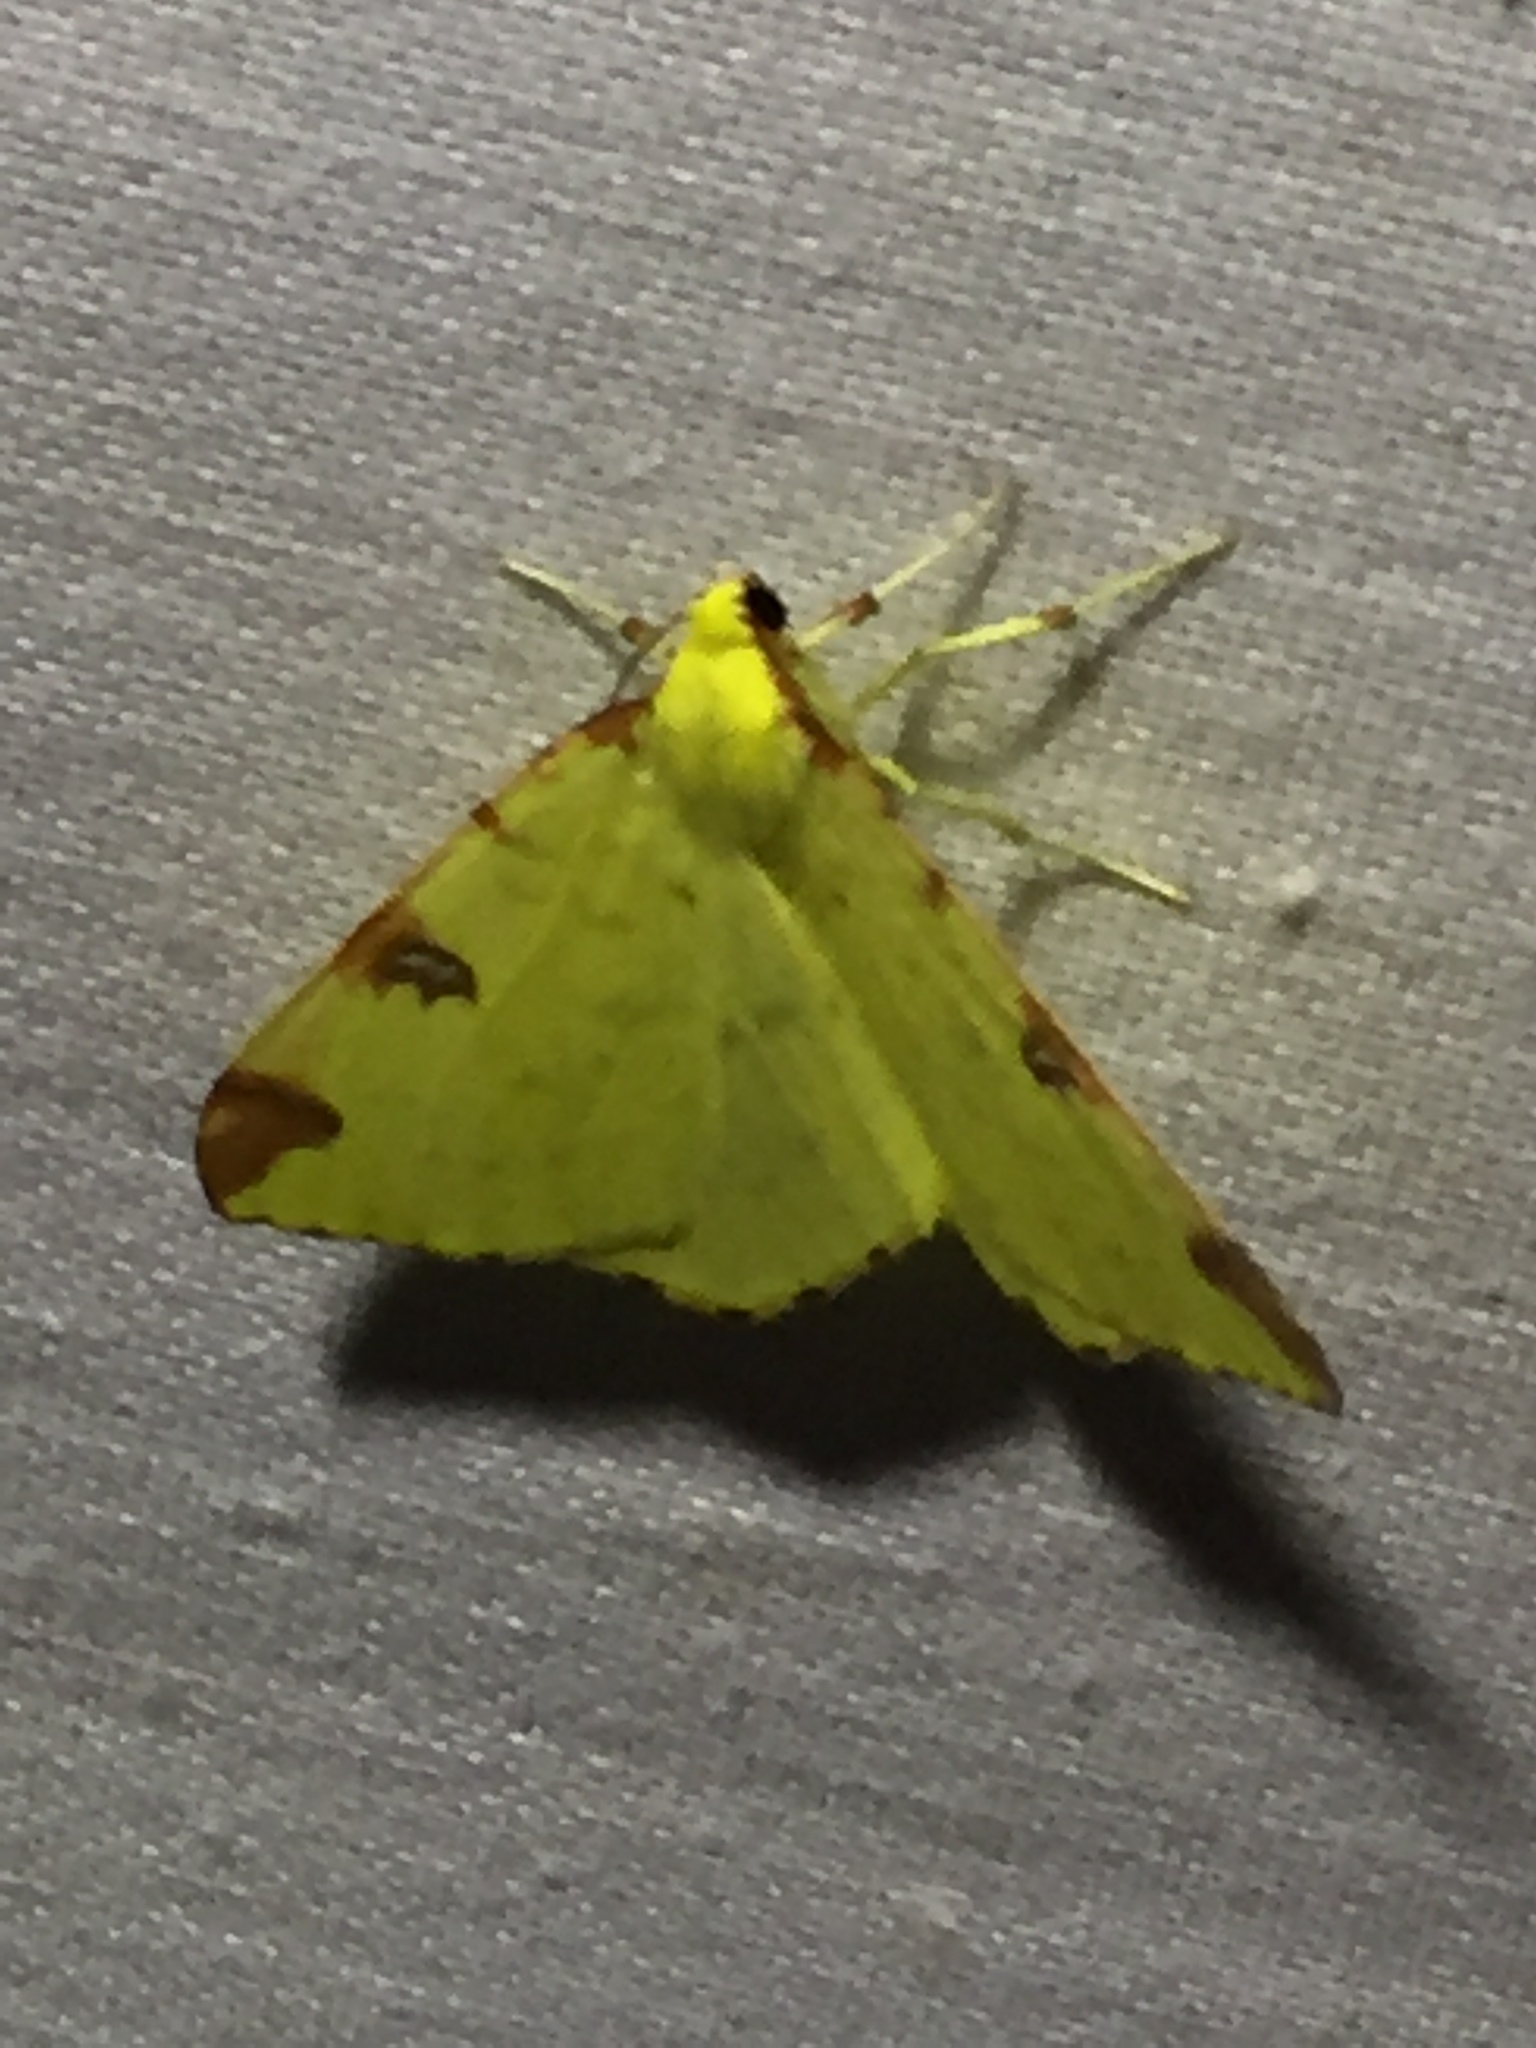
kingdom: Animalia
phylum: Arthropoda
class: Insecta
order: Lepidoptera
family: Geometridae
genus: Opisthograptis
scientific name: Opisthograptis luteolata
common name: Brimstone moth
